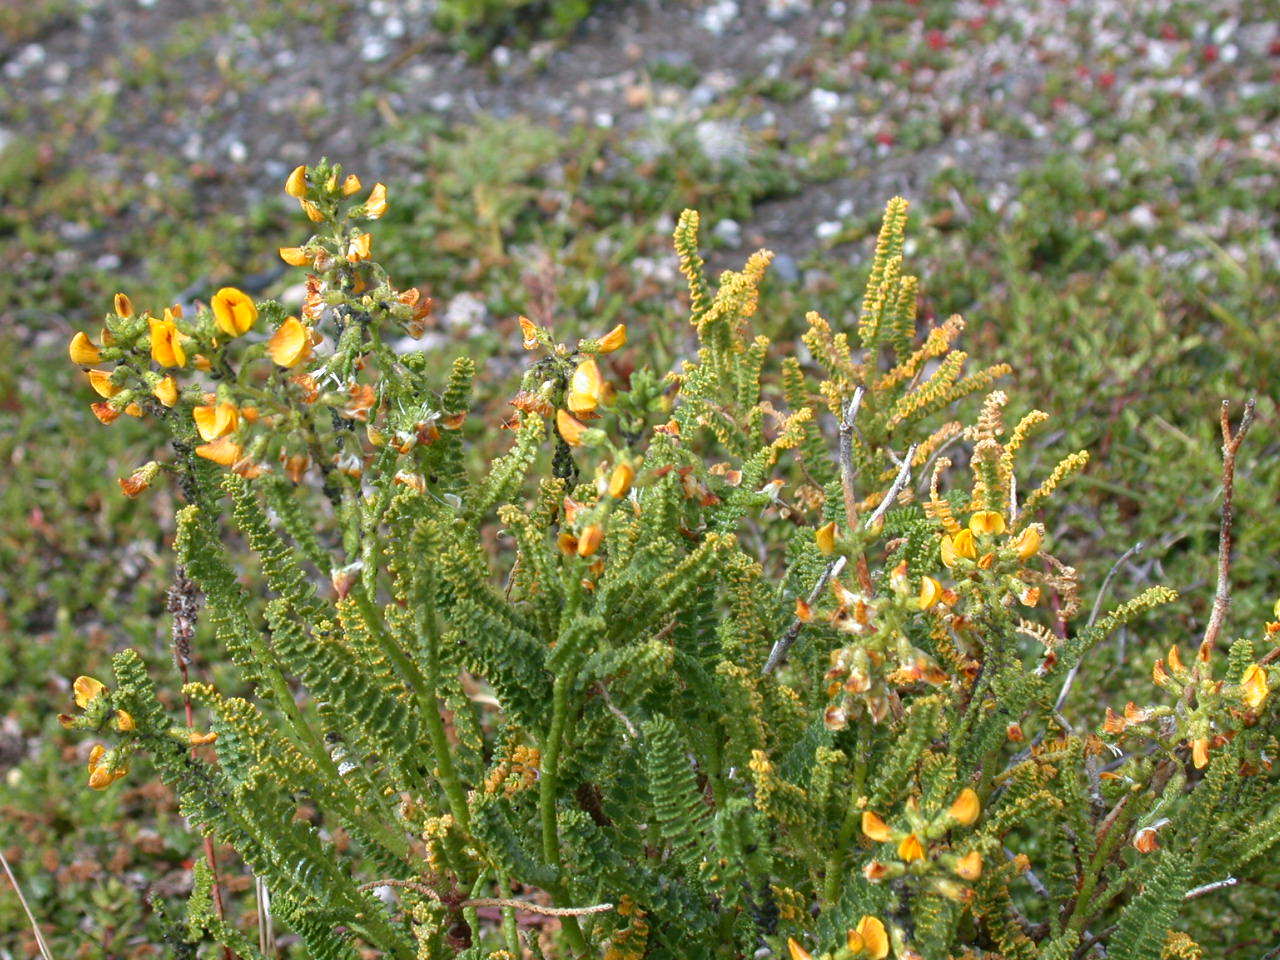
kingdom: Plantae
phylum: Tracheophyta
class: Magnoliopsida
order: Fabales
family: Fabaceae
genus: Adesmia
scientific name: Adesmia boronioides
